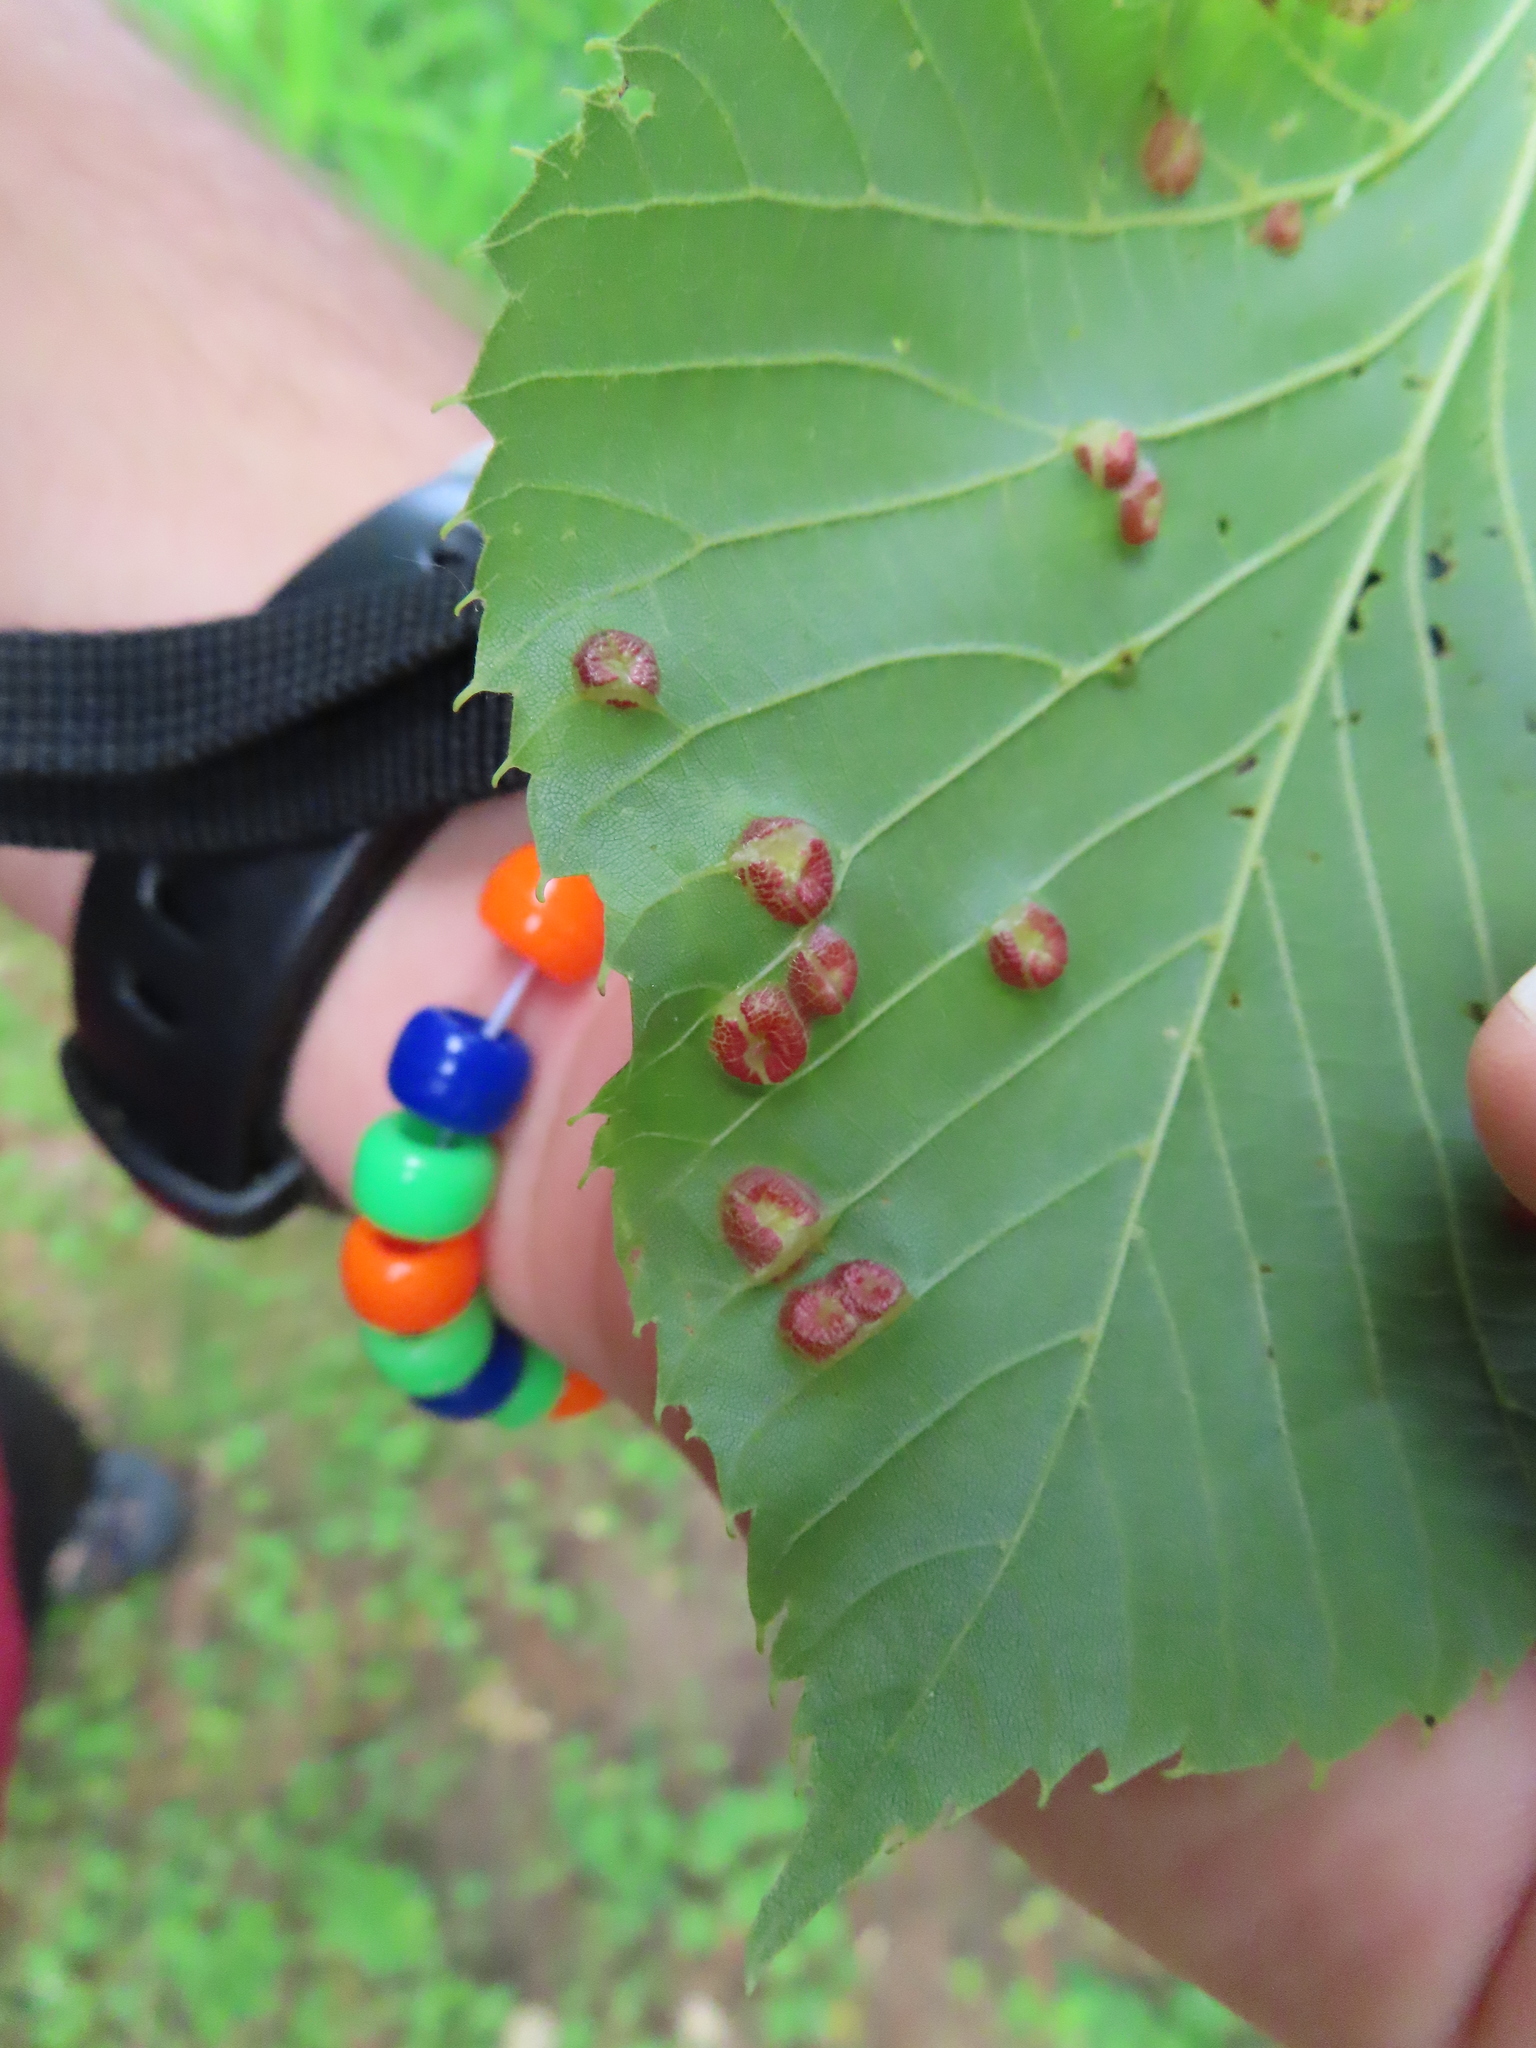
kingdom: Animalia
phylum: Arthropoda
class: Insecta
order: Diptera
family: Cecidomyiidae
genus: Contarinia
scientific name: Contarinia verrucicola
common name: Linden wart gall midge
